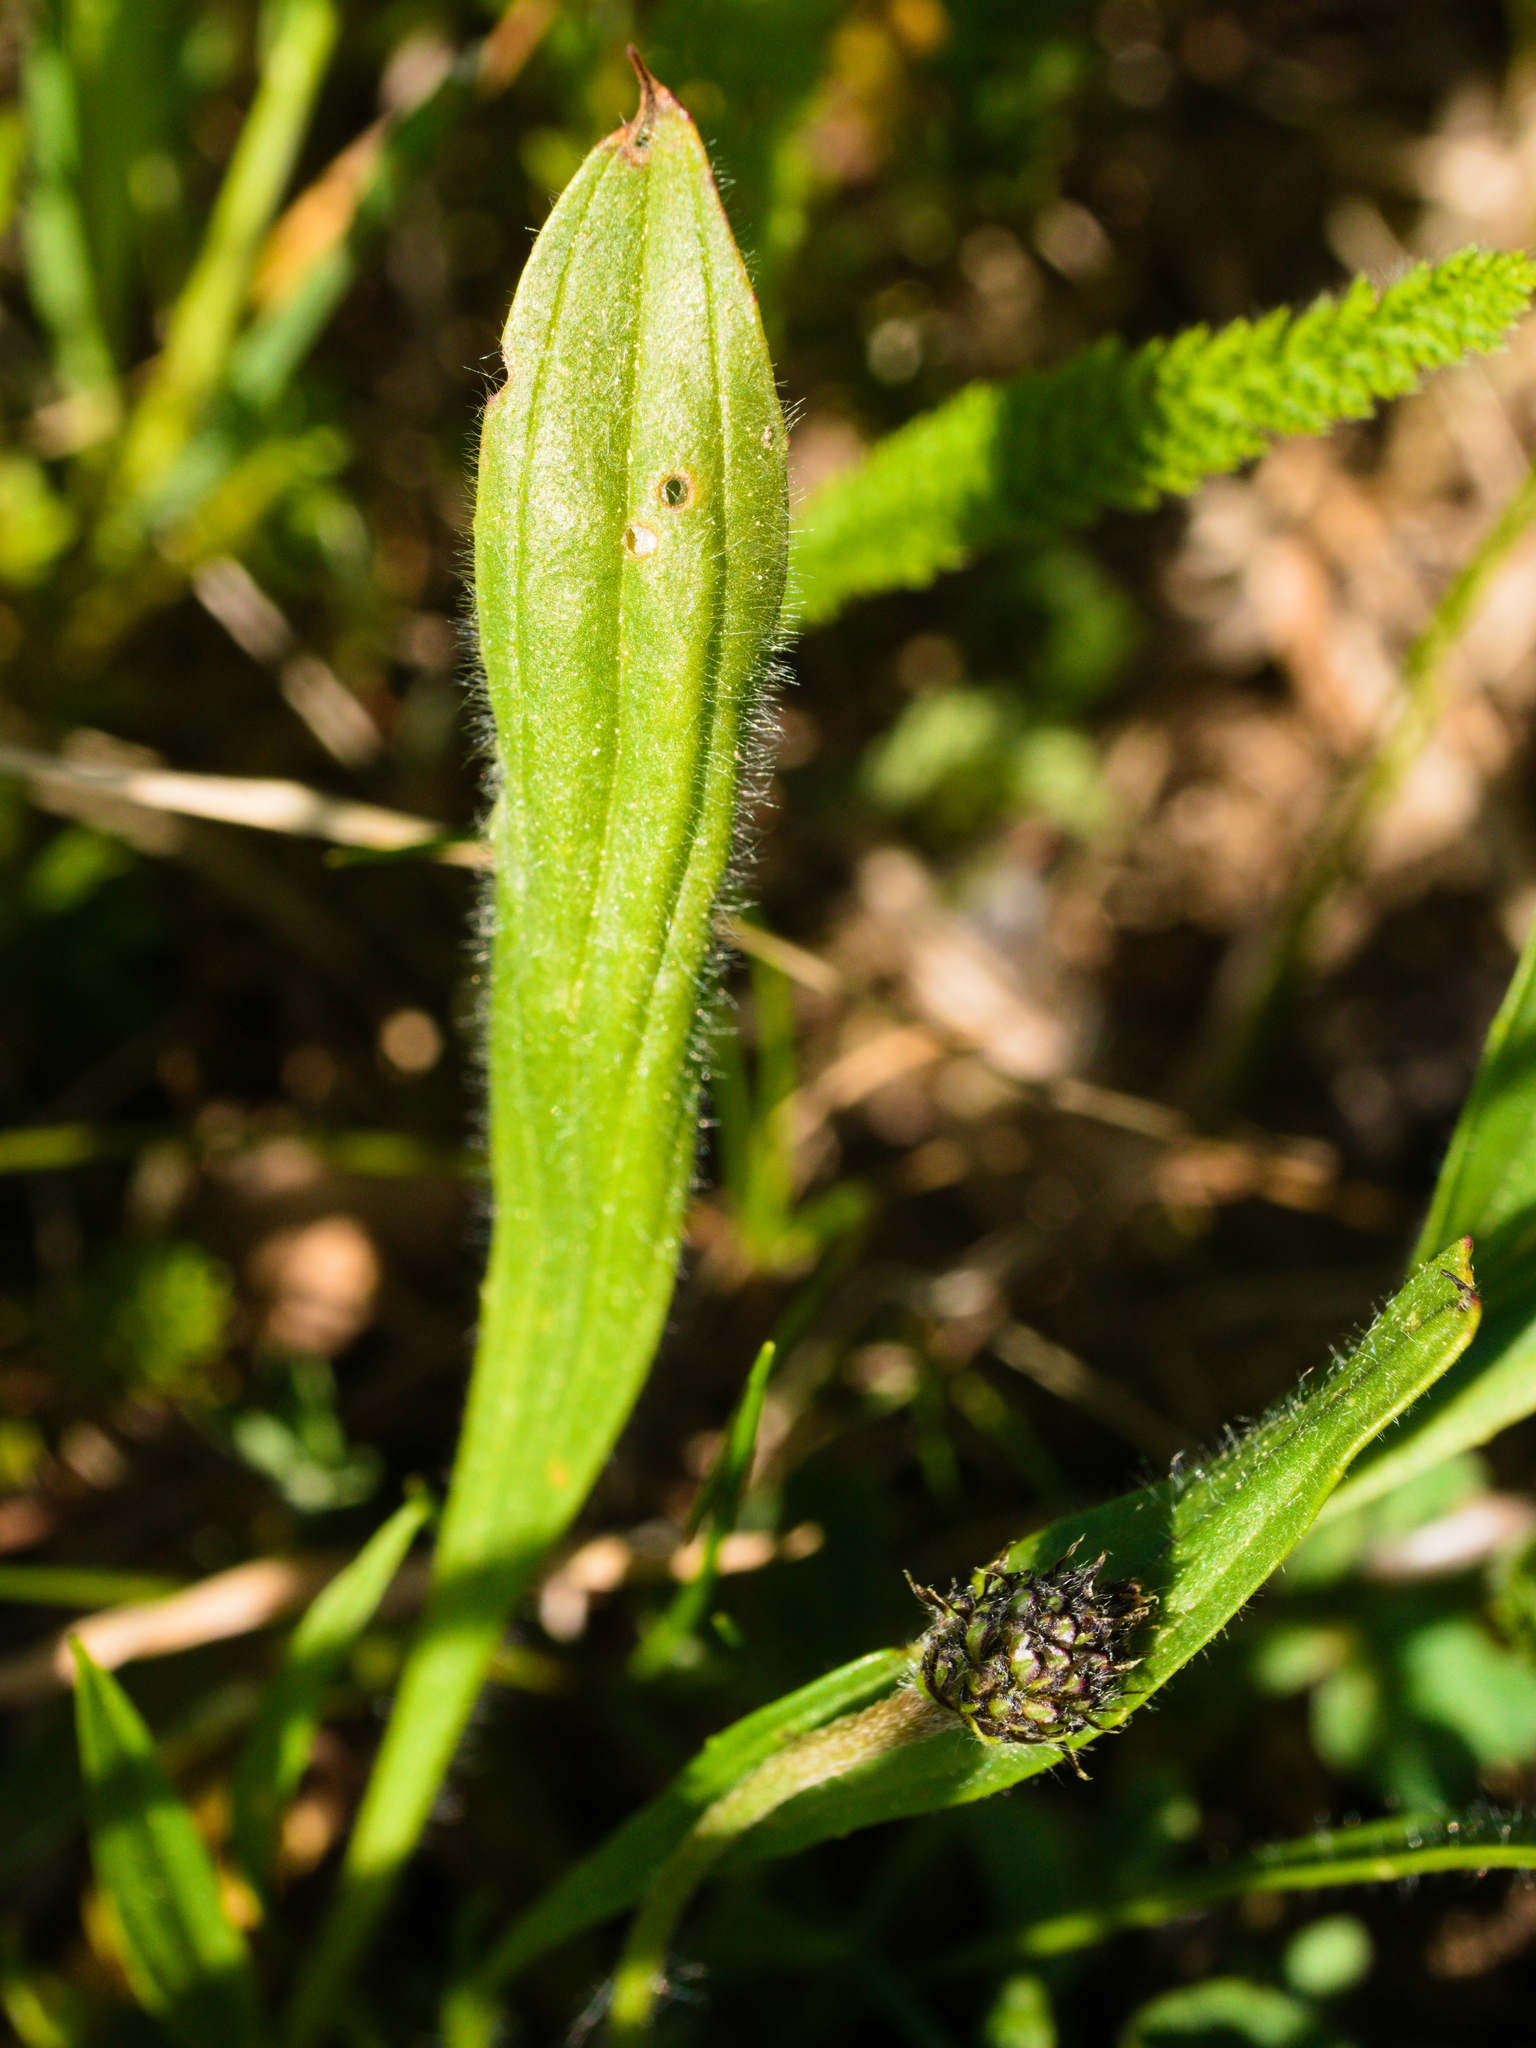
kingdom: Plantae
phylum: Tracheophyta
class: Magnoliopsida
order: Lamiales
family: Plantaginaceae
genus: Plantago
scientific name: Plantago lanceolata
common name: Ribwort plantain
